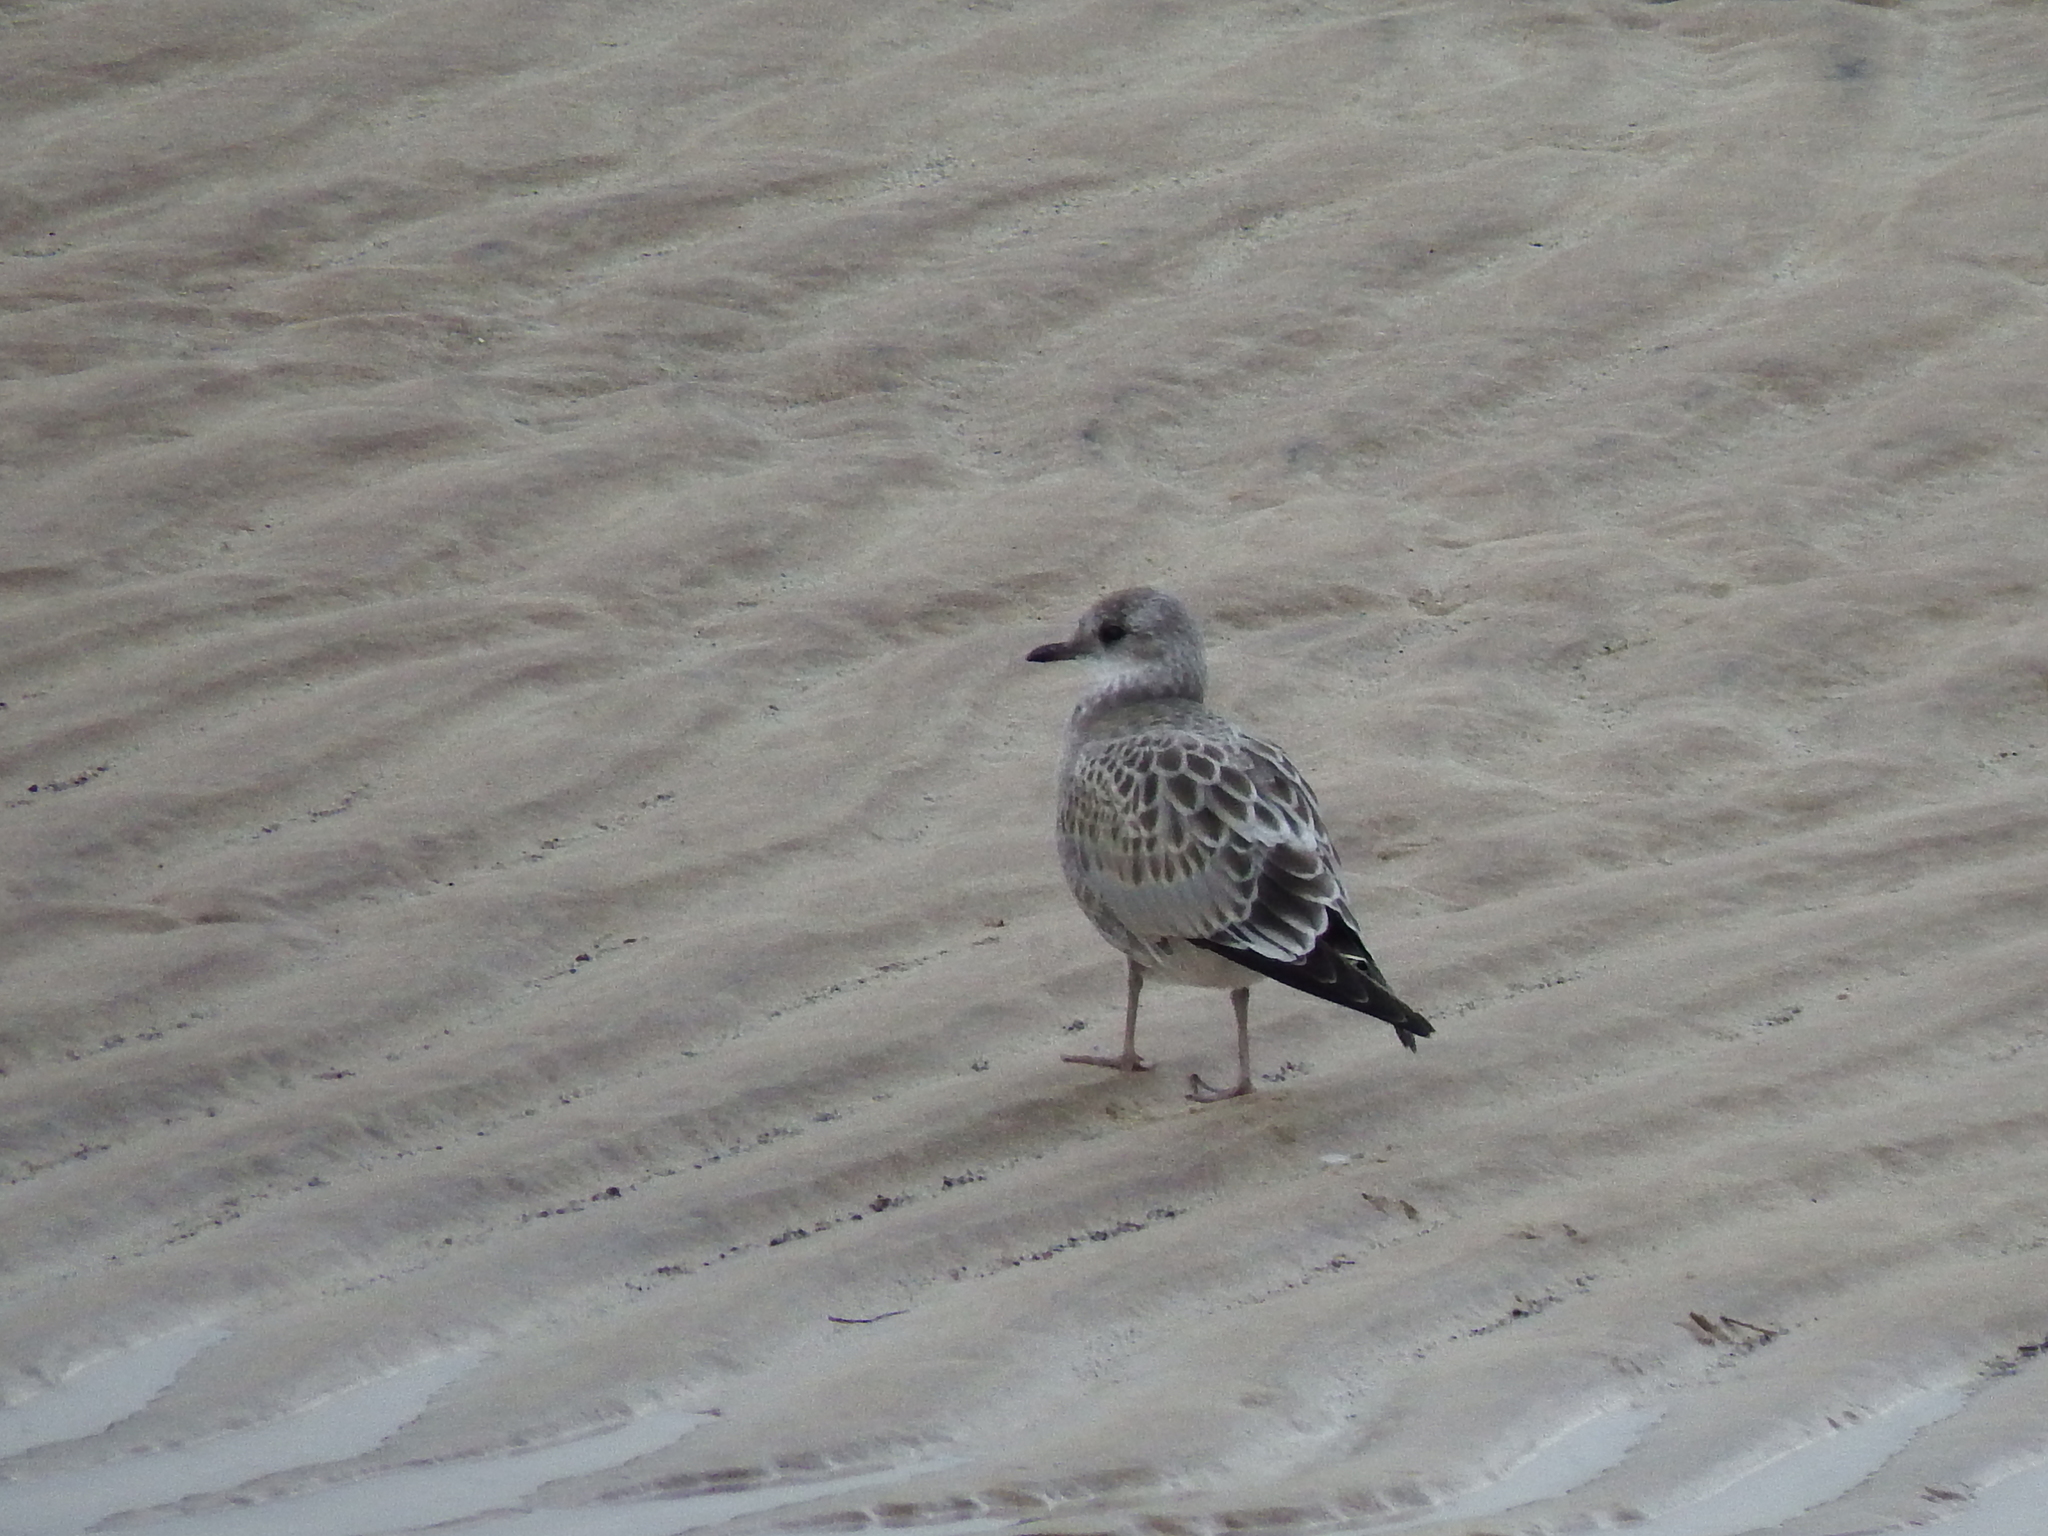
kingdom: Animalia
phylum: Chordata
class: Aves
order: Charadriiformes
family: Laridae
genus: Larus
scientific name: Larus canus
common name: Mew gull
